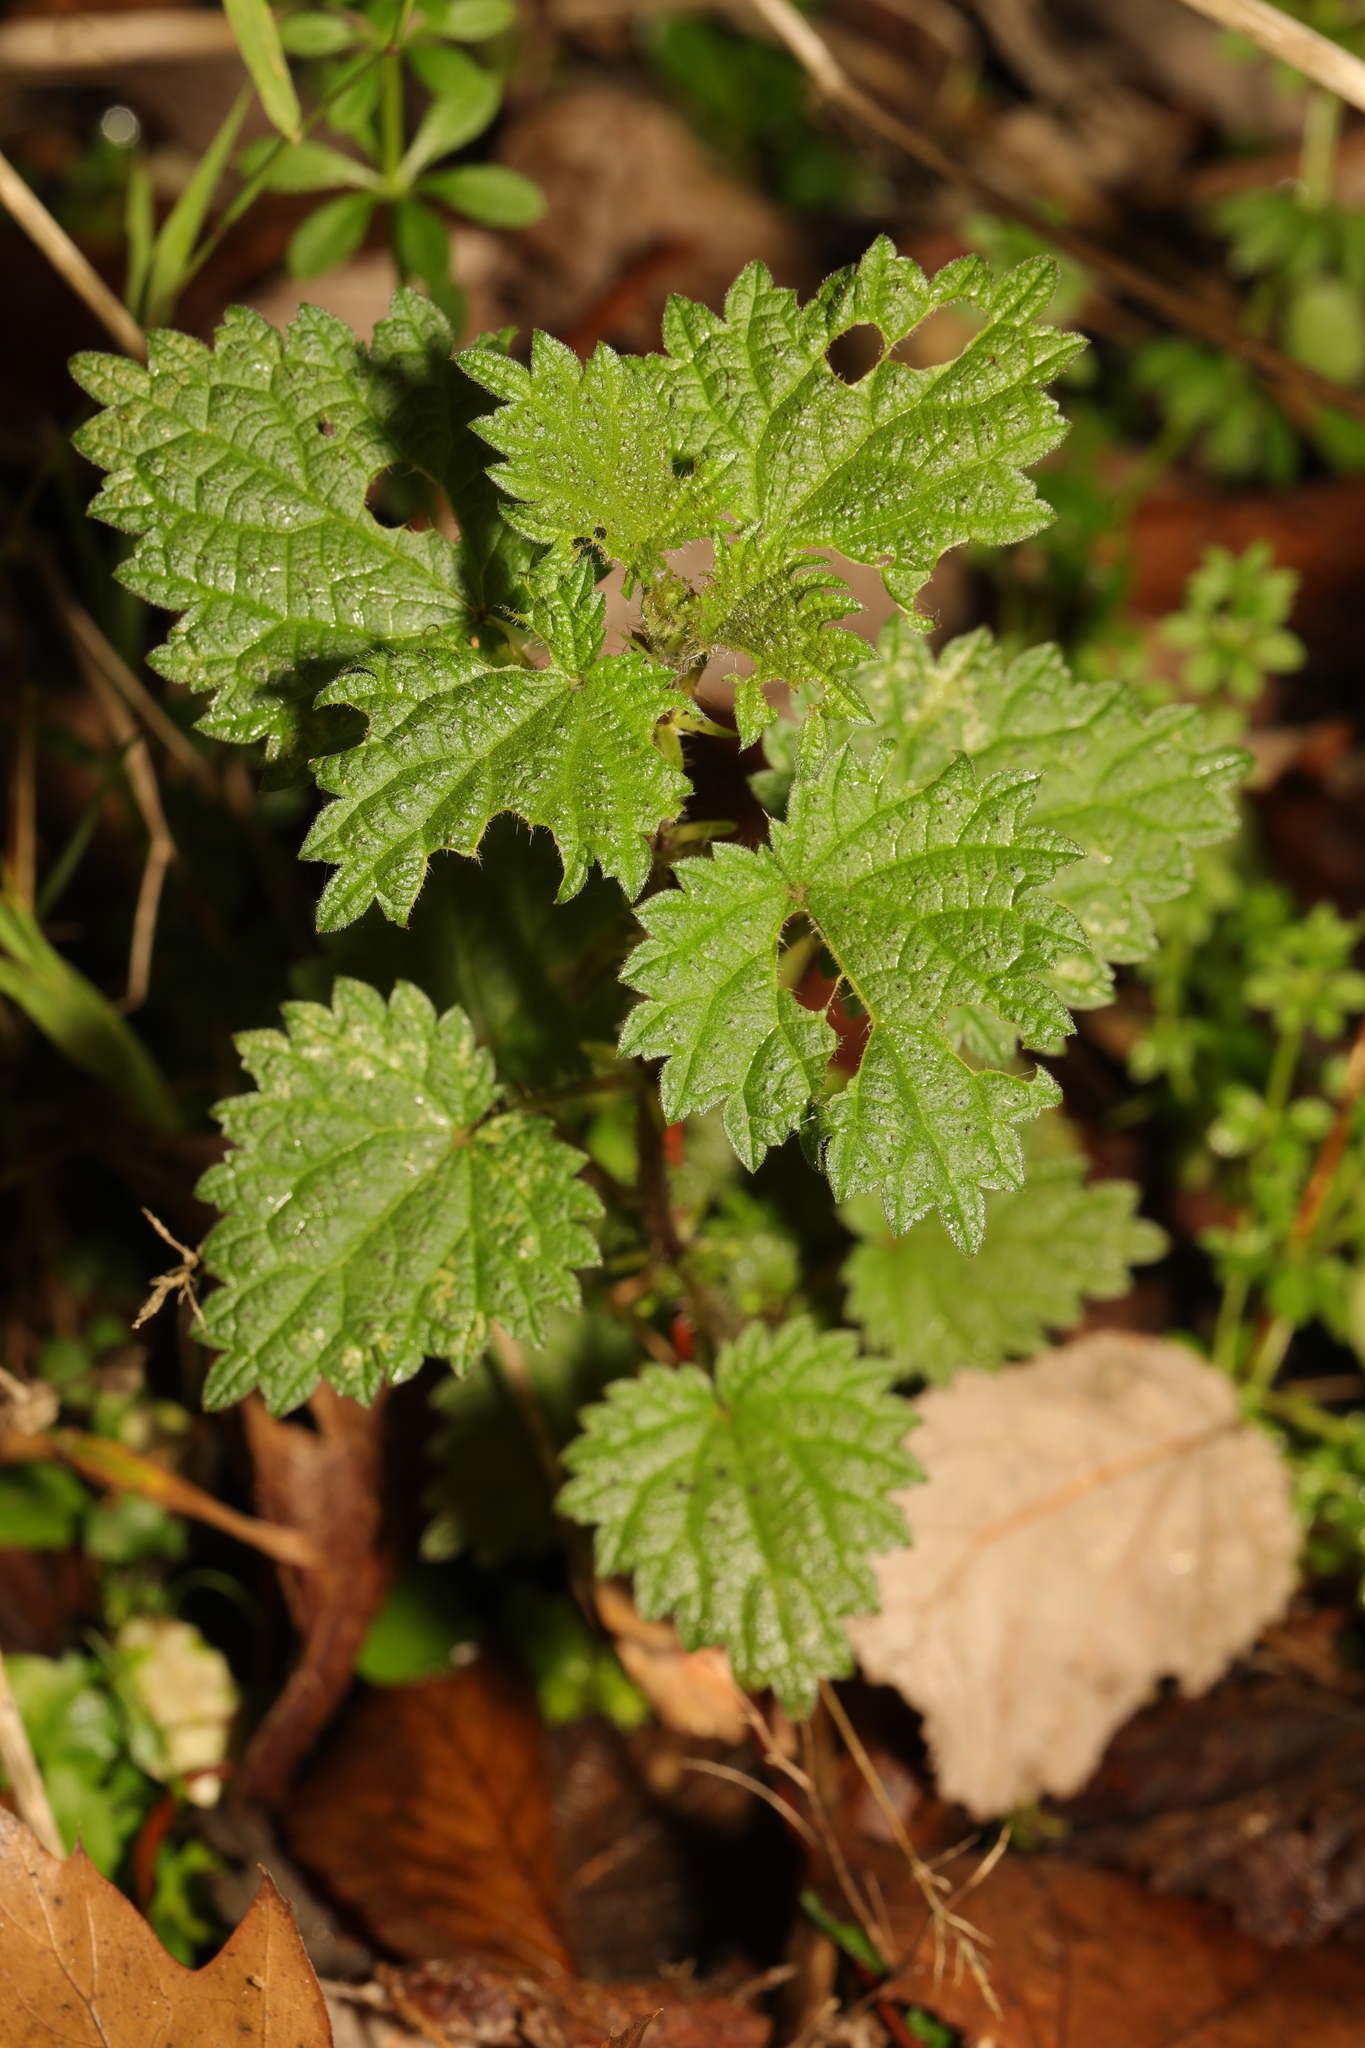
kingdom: Plantae
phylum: Tracheophyta
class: Magnoliopsida
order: Rosales
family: Urticaceae
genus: Urtica
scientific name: Urtica dioica
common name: Common nettle
